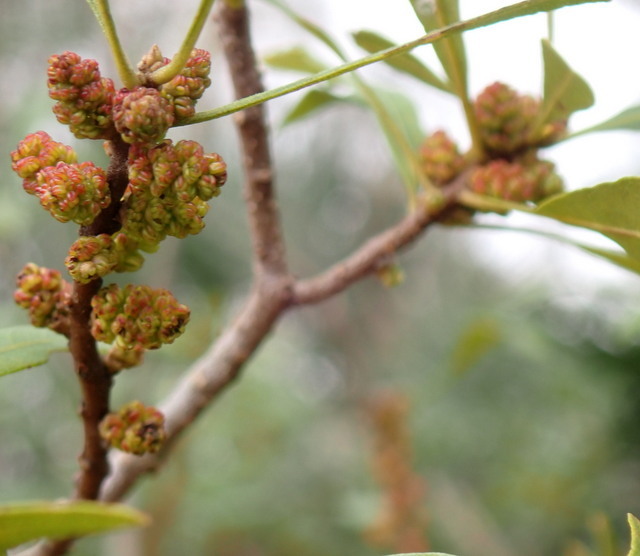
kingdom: Plantae
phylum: Tracheophyta
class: Magnoliopsida
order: Fagales
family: Myricaceae
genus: Morella
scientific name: Morella cerifera
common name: Wax myrtle
